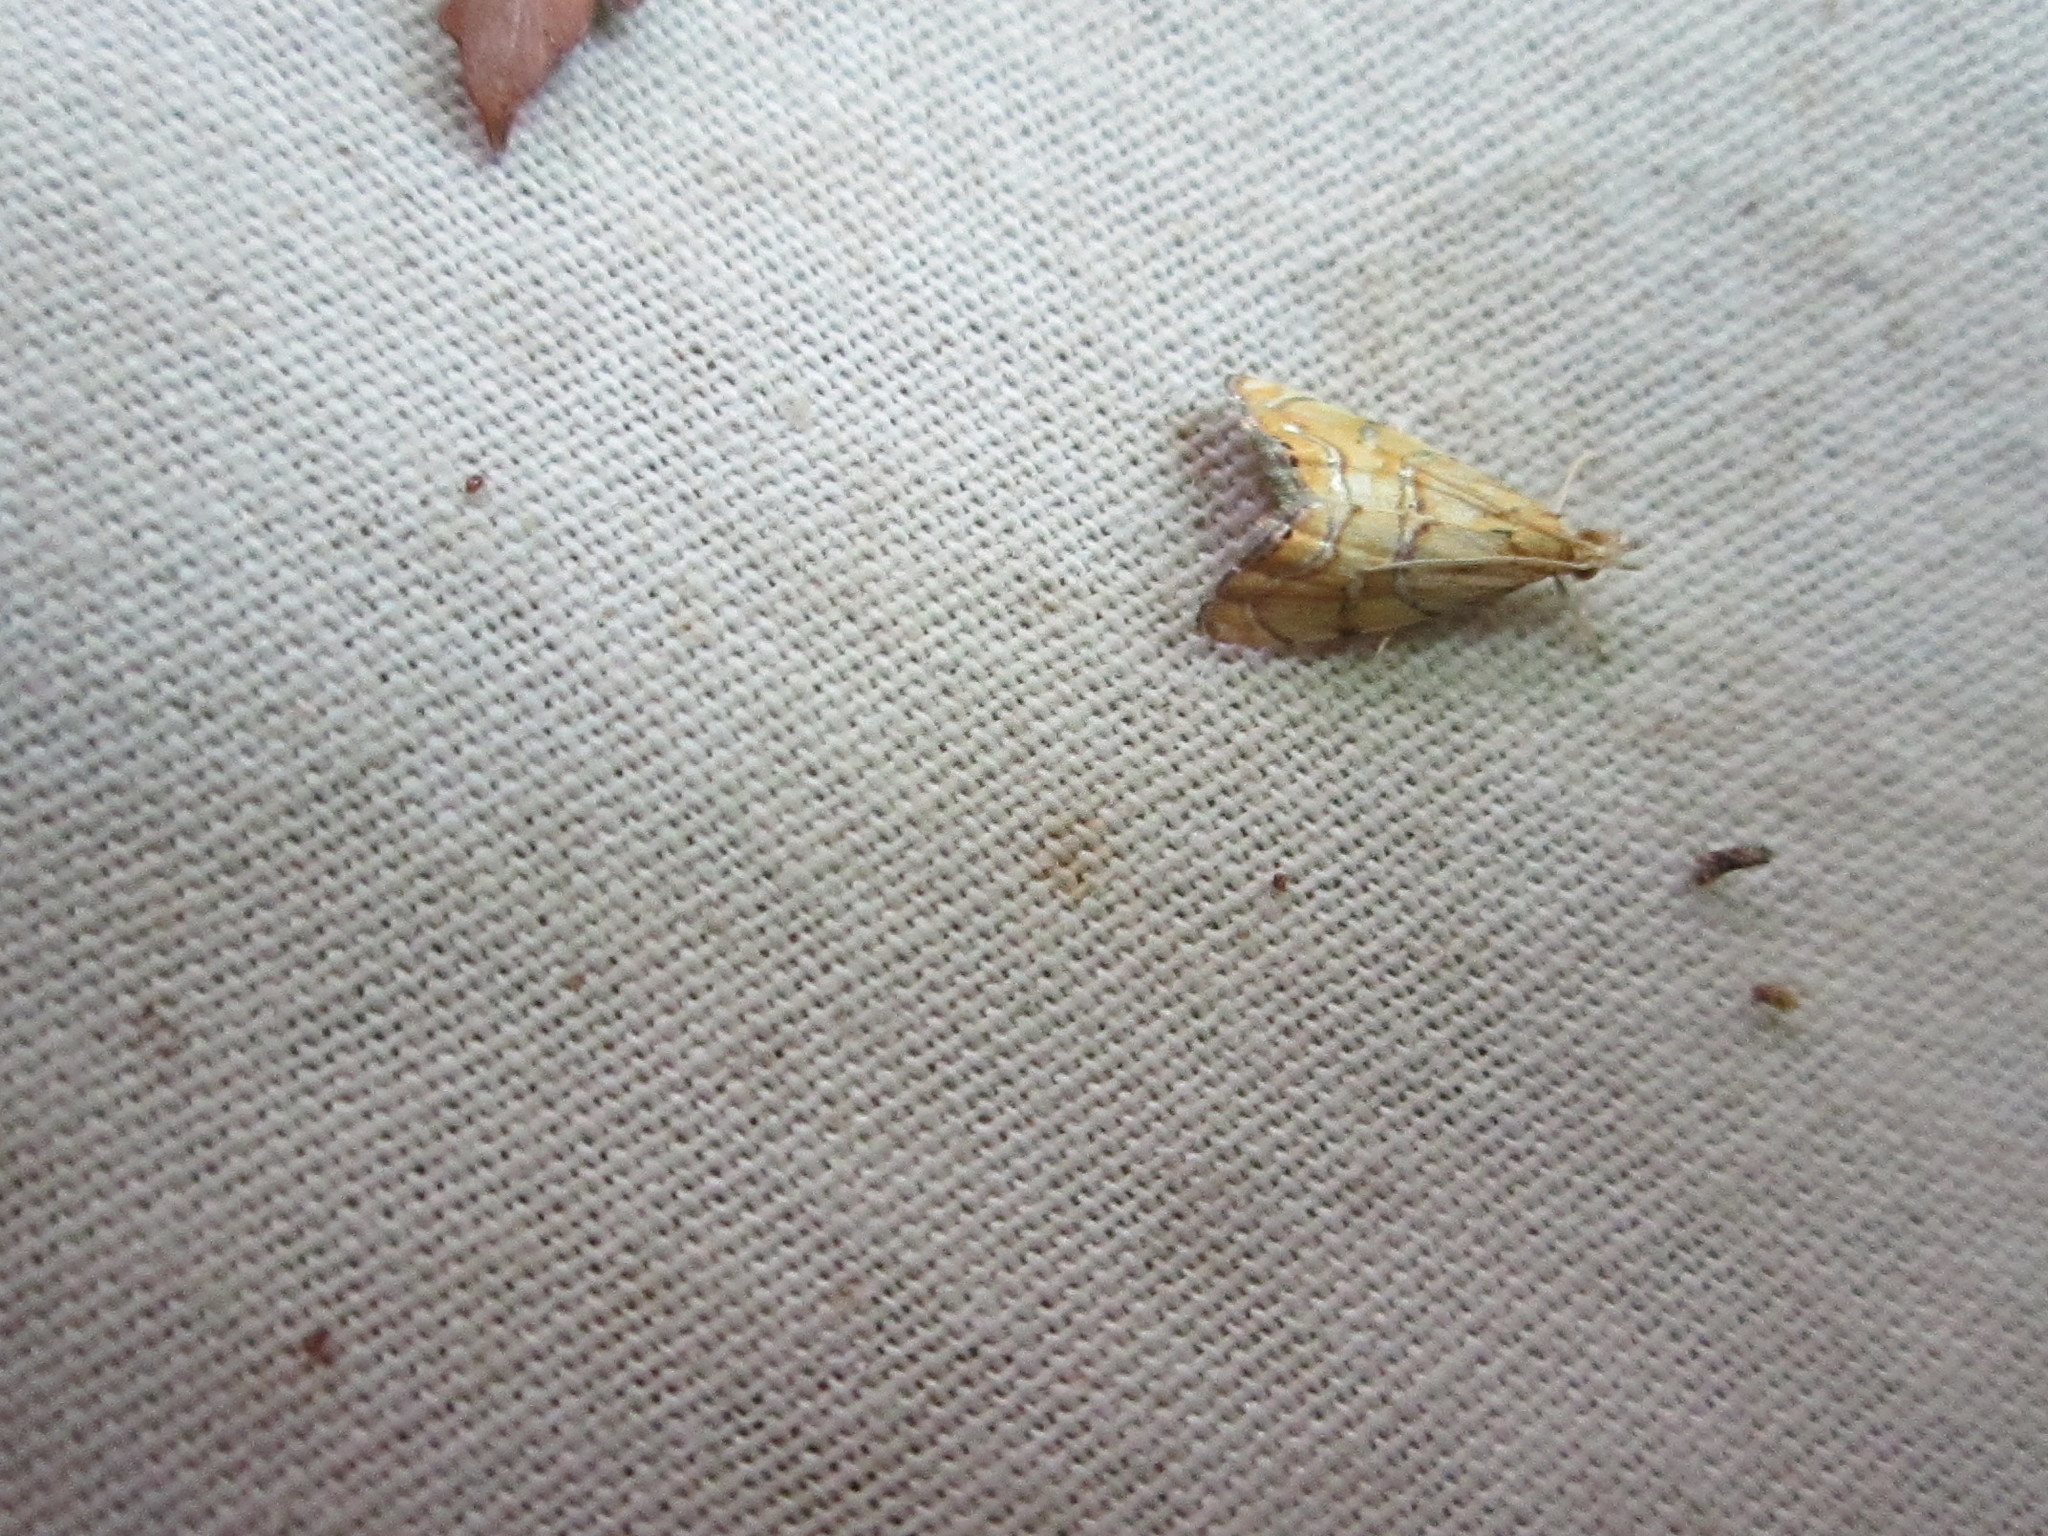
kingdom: Animalia
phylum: Arthropoda
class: Insecta
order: Lepidoptera
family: Crambidae
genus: Glaucocharis
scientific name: Glaucocharis auriscriptella
